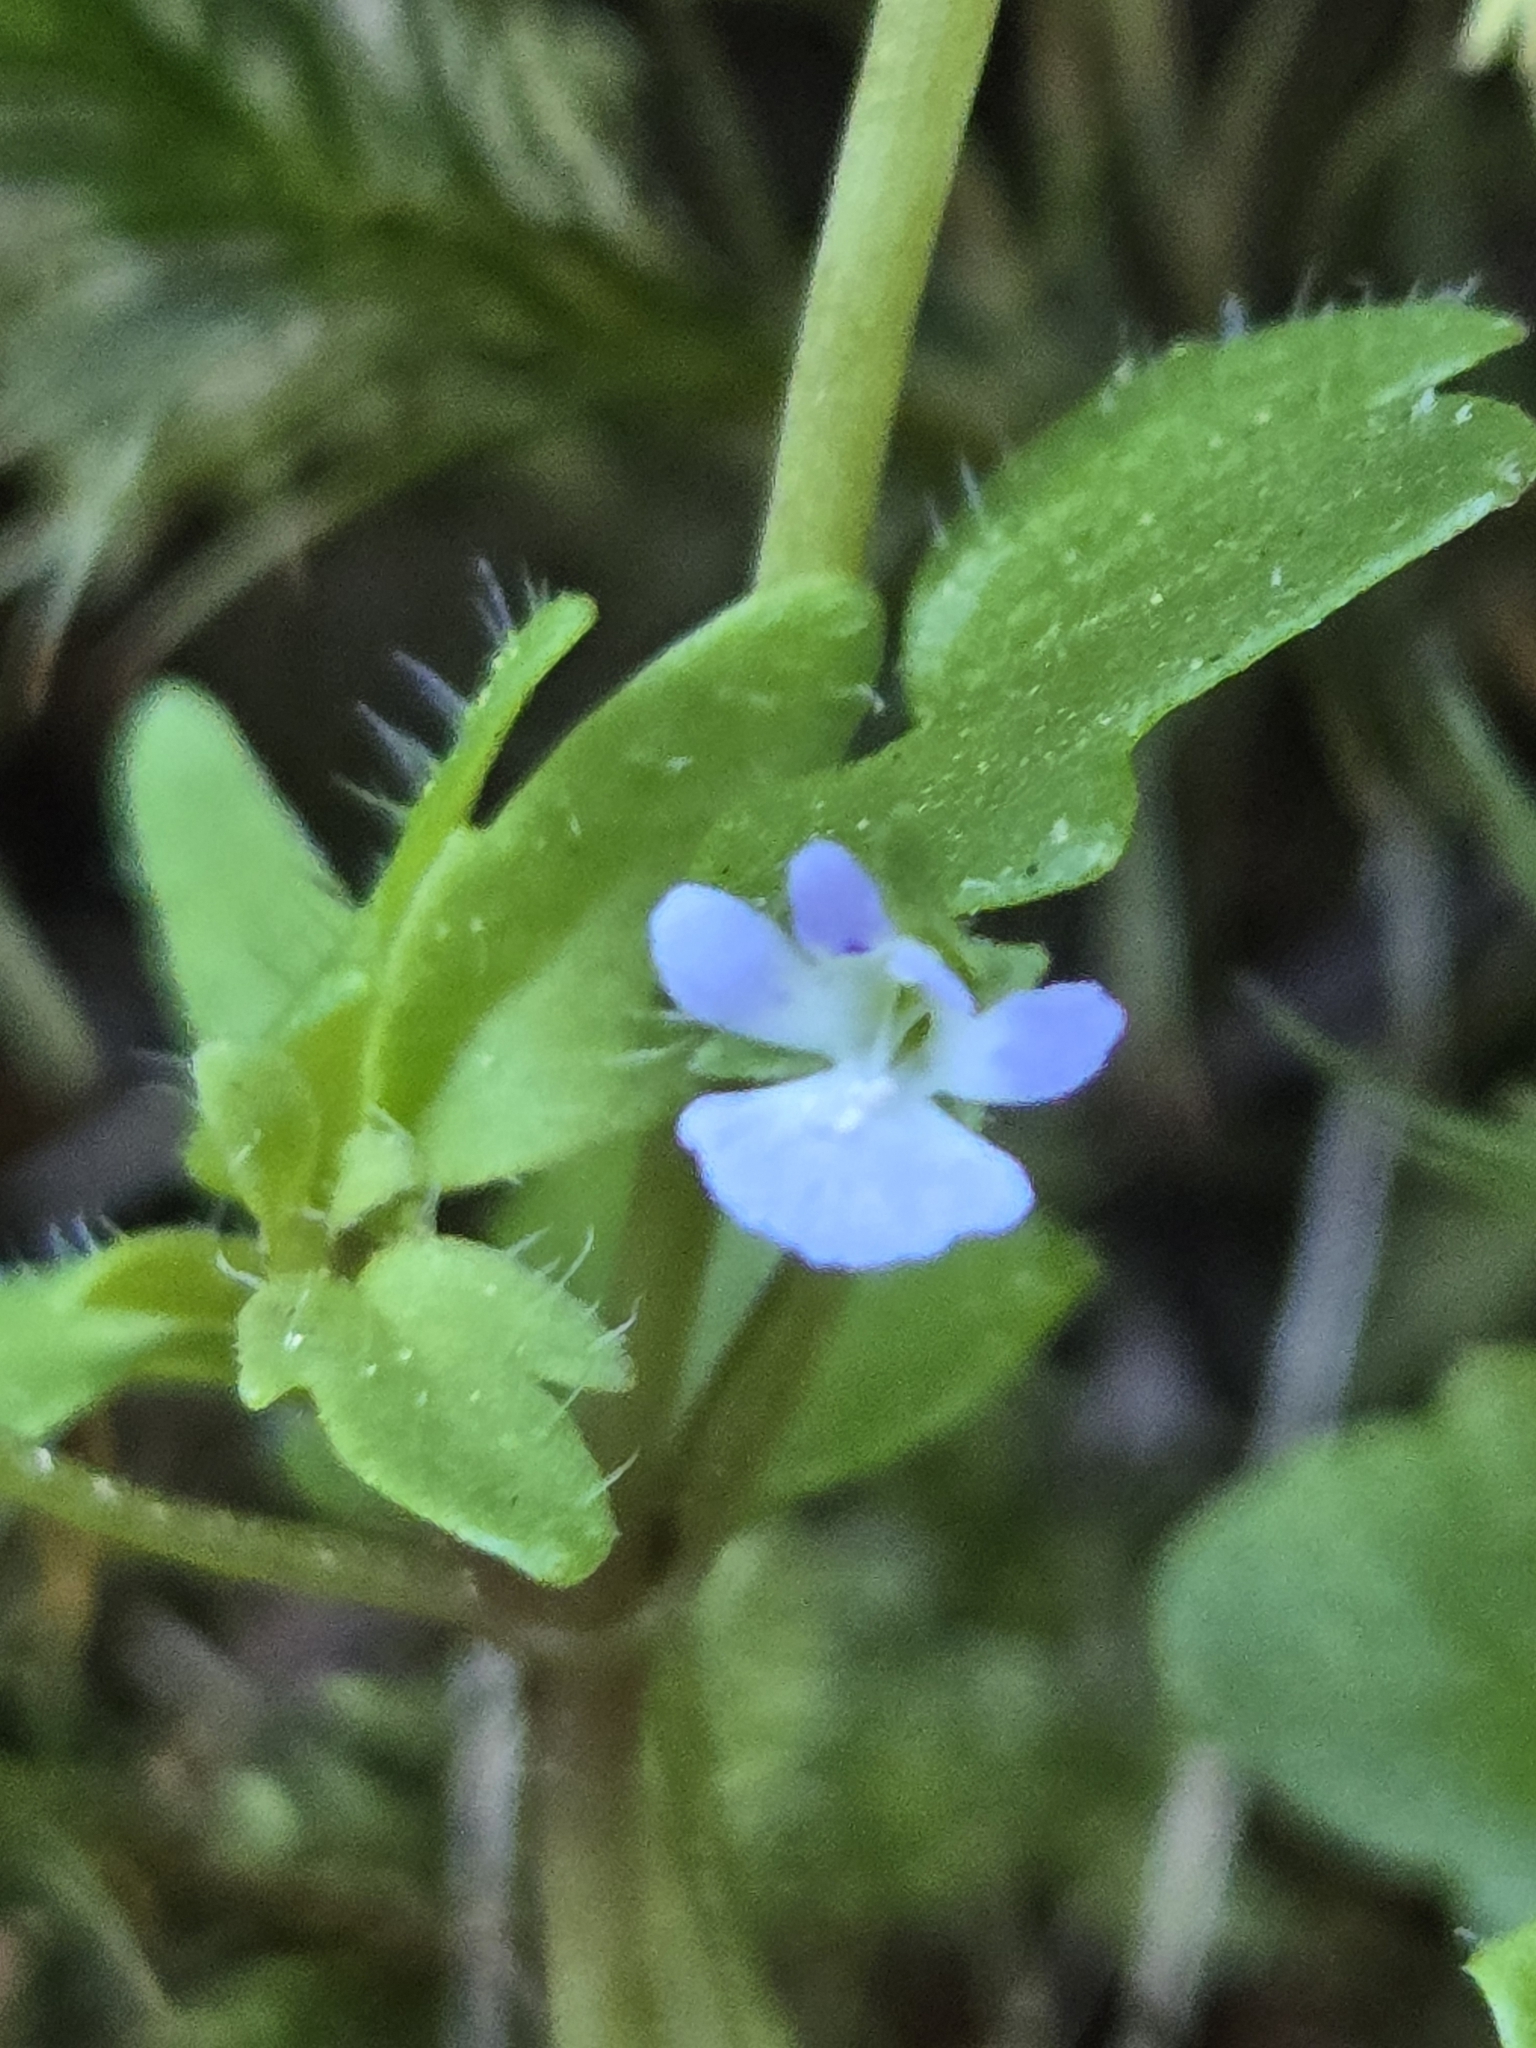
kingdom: Plantae
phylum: Tracheophyta
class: Magnoliopsida
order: Lamiales
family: Plantaginaceae
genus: Tonella
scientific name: Tonella tenella
